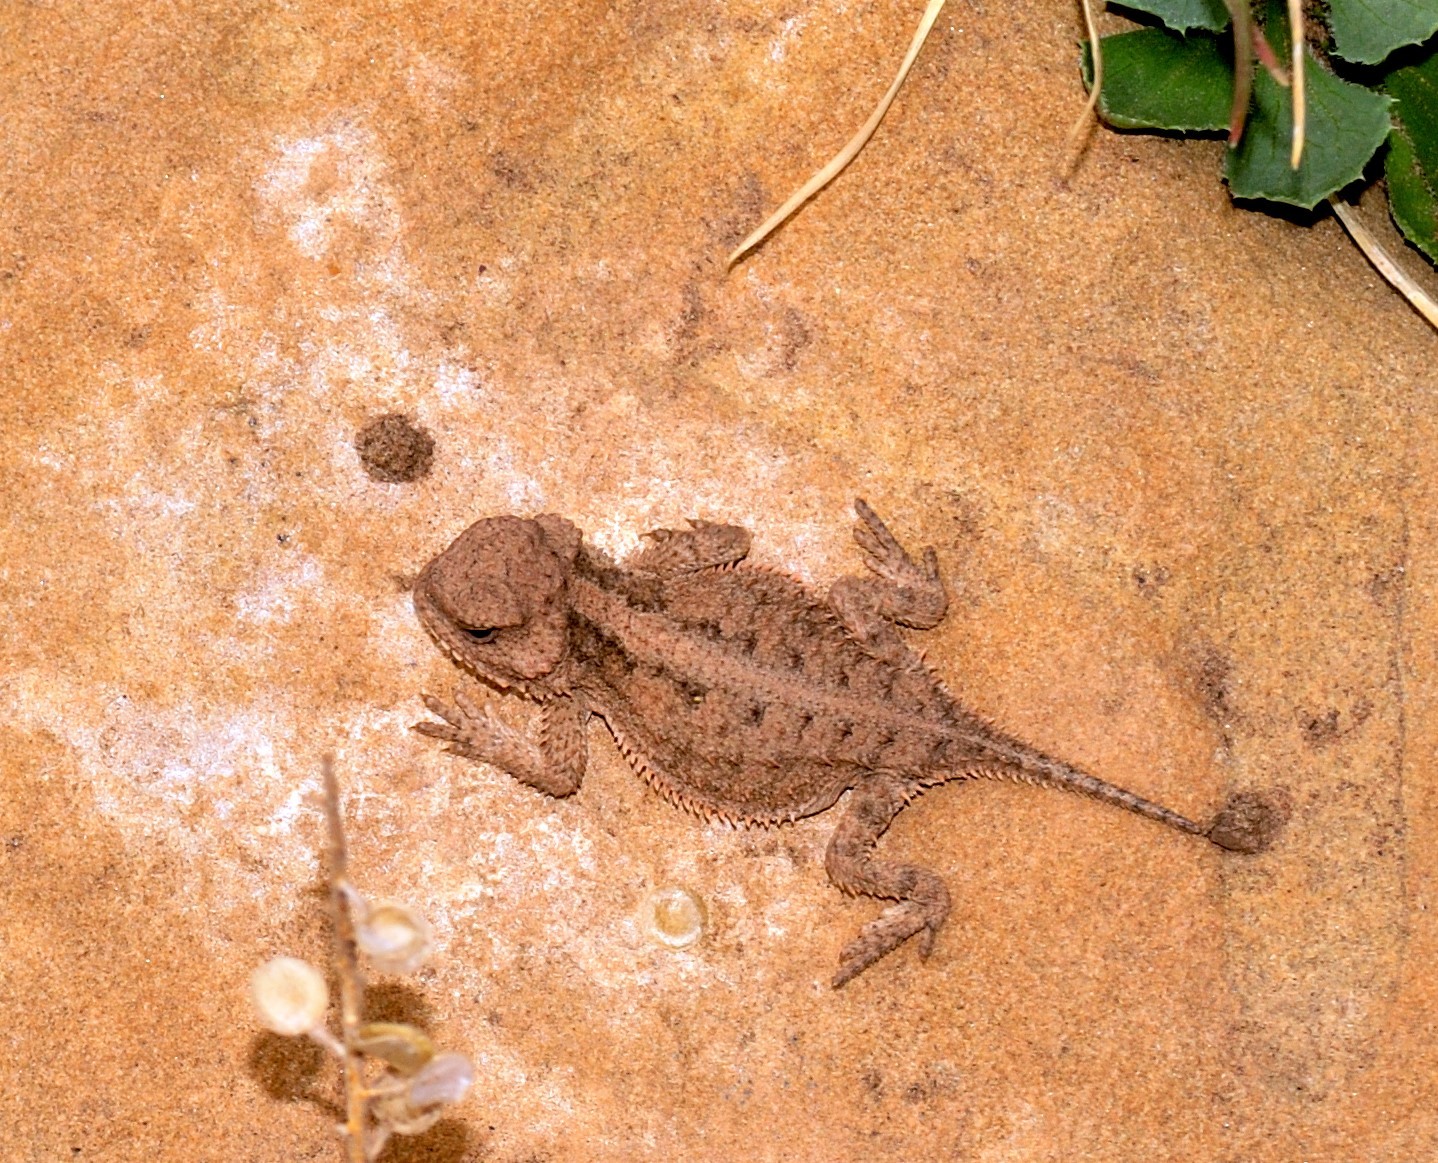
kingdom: Animalia
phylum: Chordata
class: Squamata
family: Phrynosomatidae
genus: Phrynosoma
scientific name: Phrynosoma hernandesi
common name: Greater short-horned lizard
